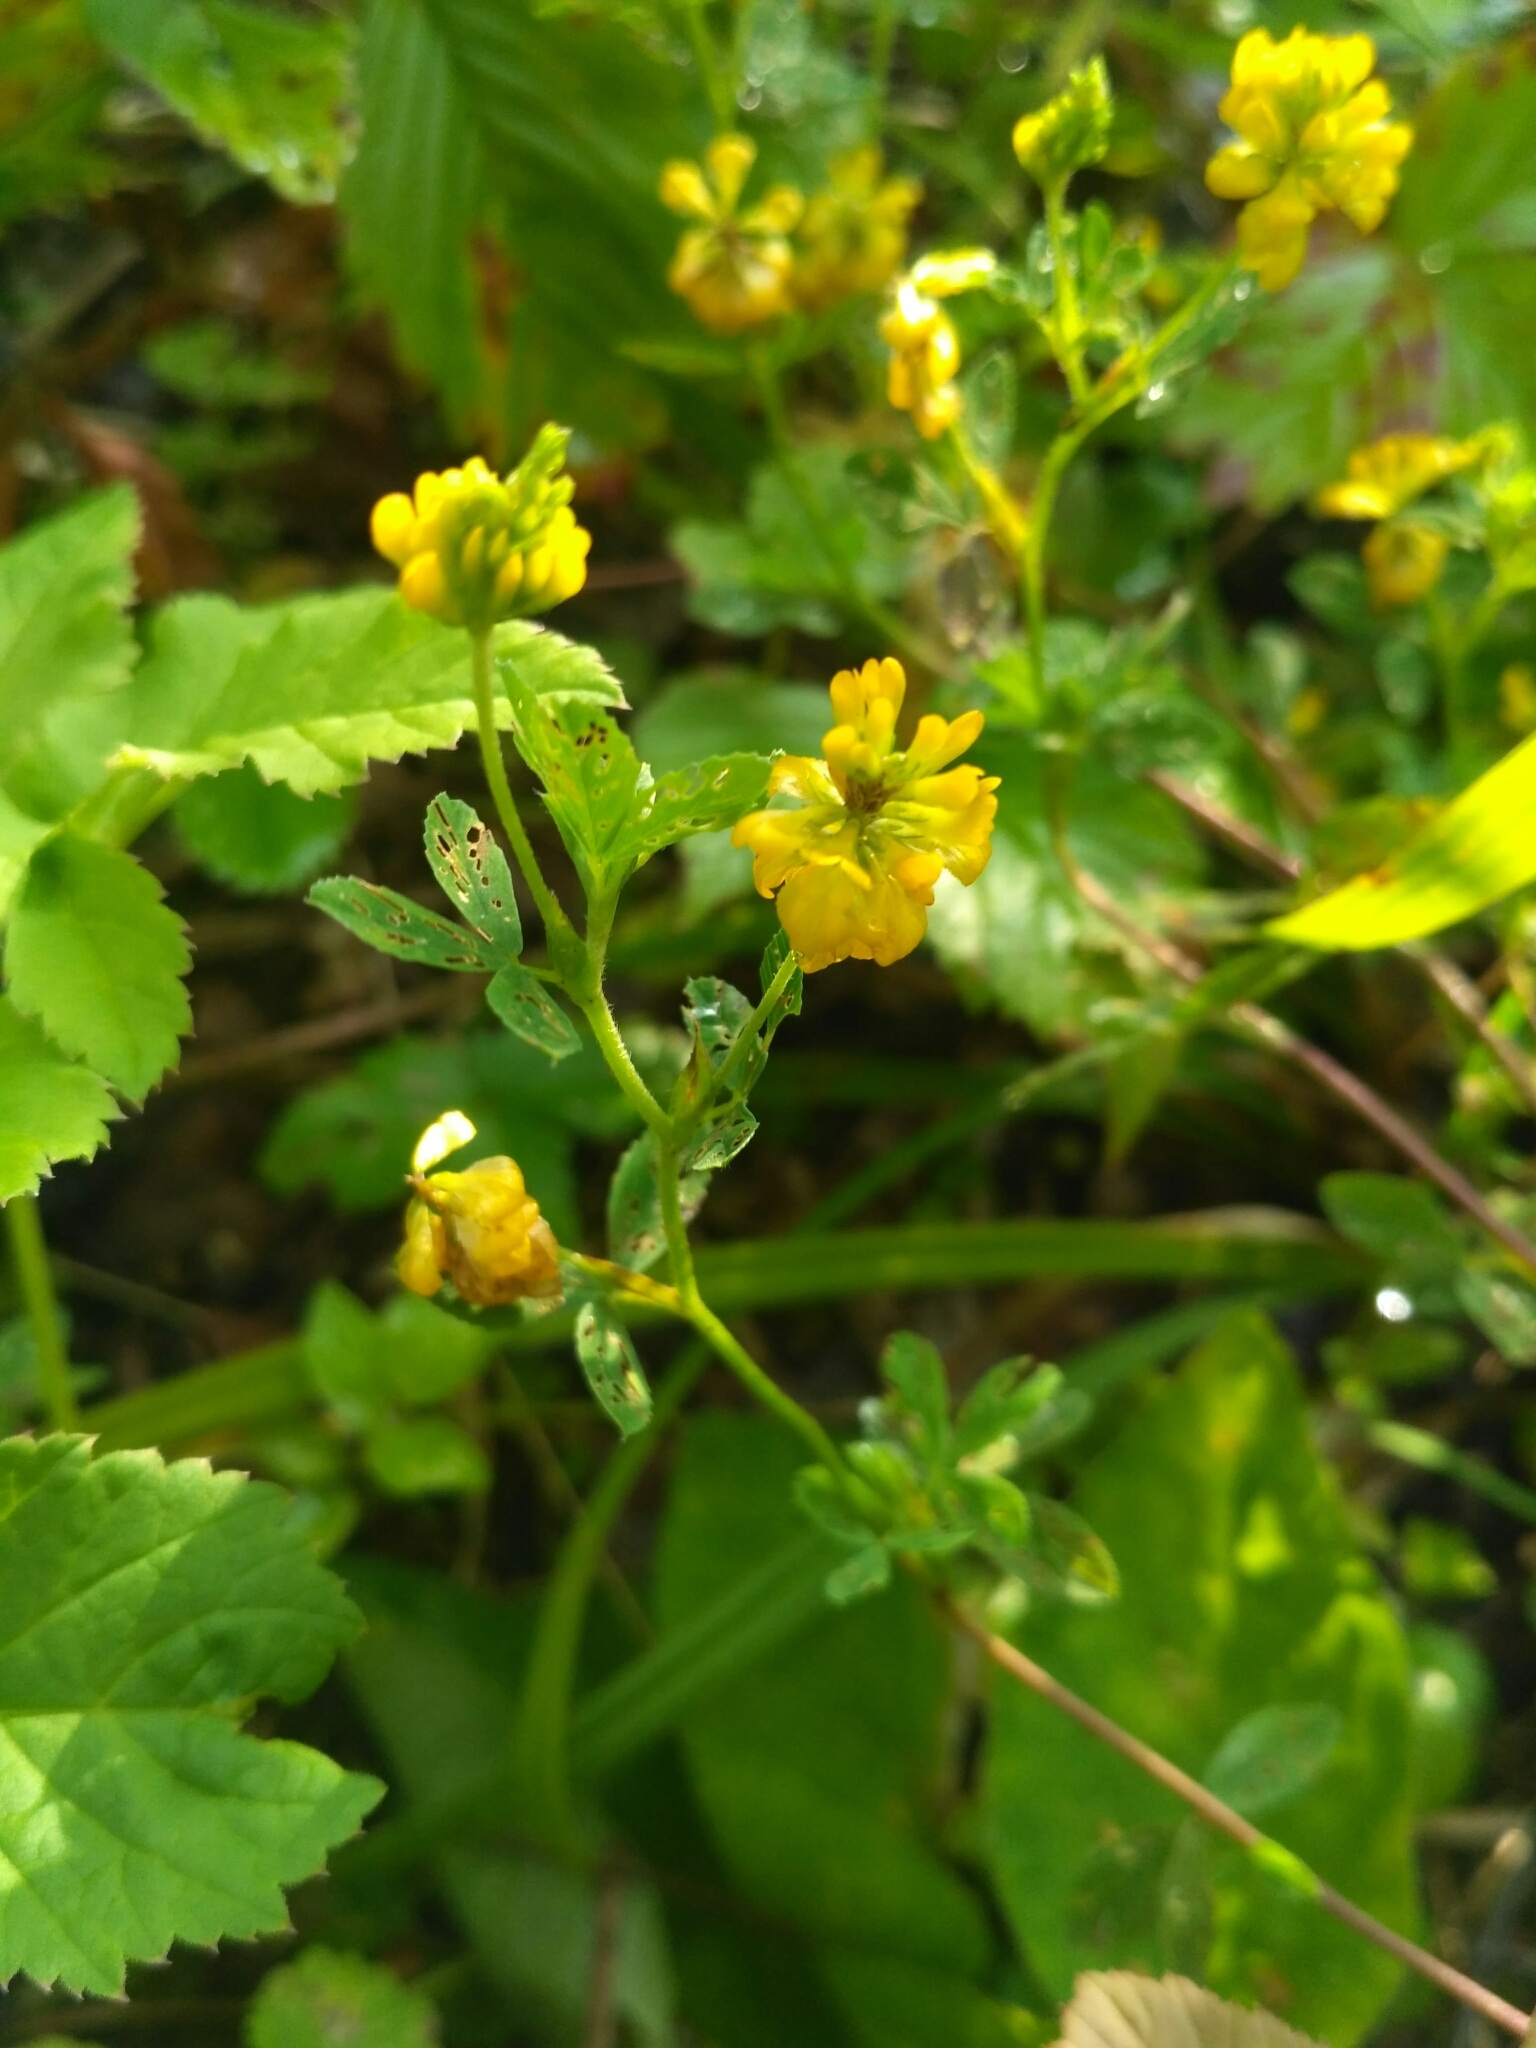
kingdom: Plantae
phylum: Tracheophyta
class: Magnoliopsida
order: Fabales
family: Fabaceae
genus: Trifolium
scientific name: Trifolium aureum
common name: Golden clover
